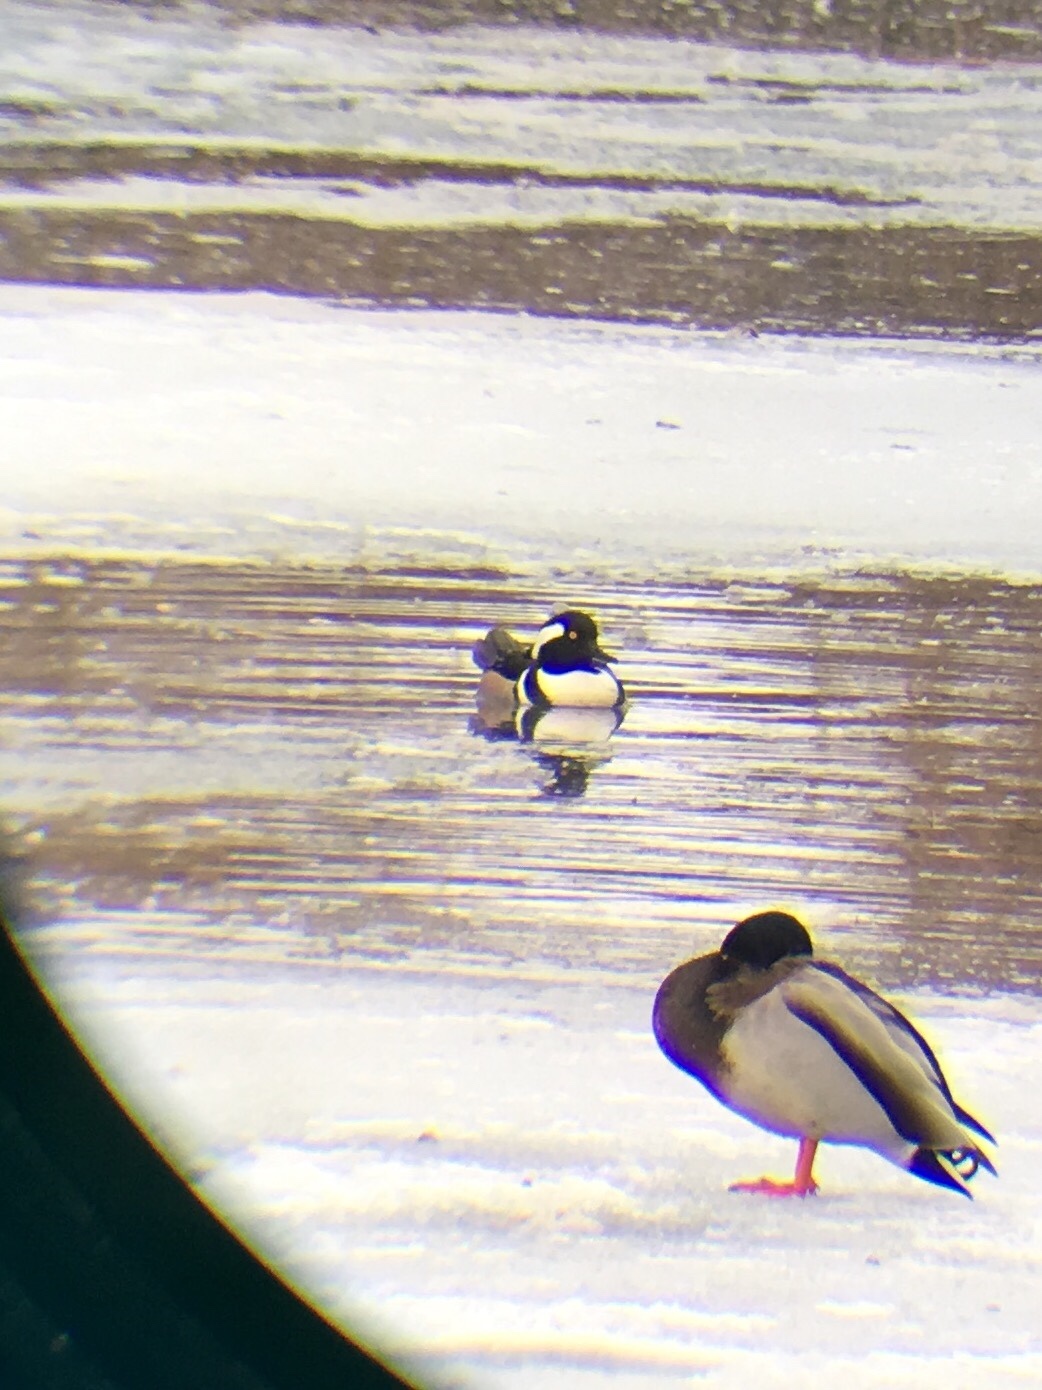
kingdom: Animalia
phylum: Chordata
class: Aves
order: Anseriformes
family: Anatidae
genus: Lophodytes
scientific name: Lophodytes cucullatus
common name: Hooded merganser
